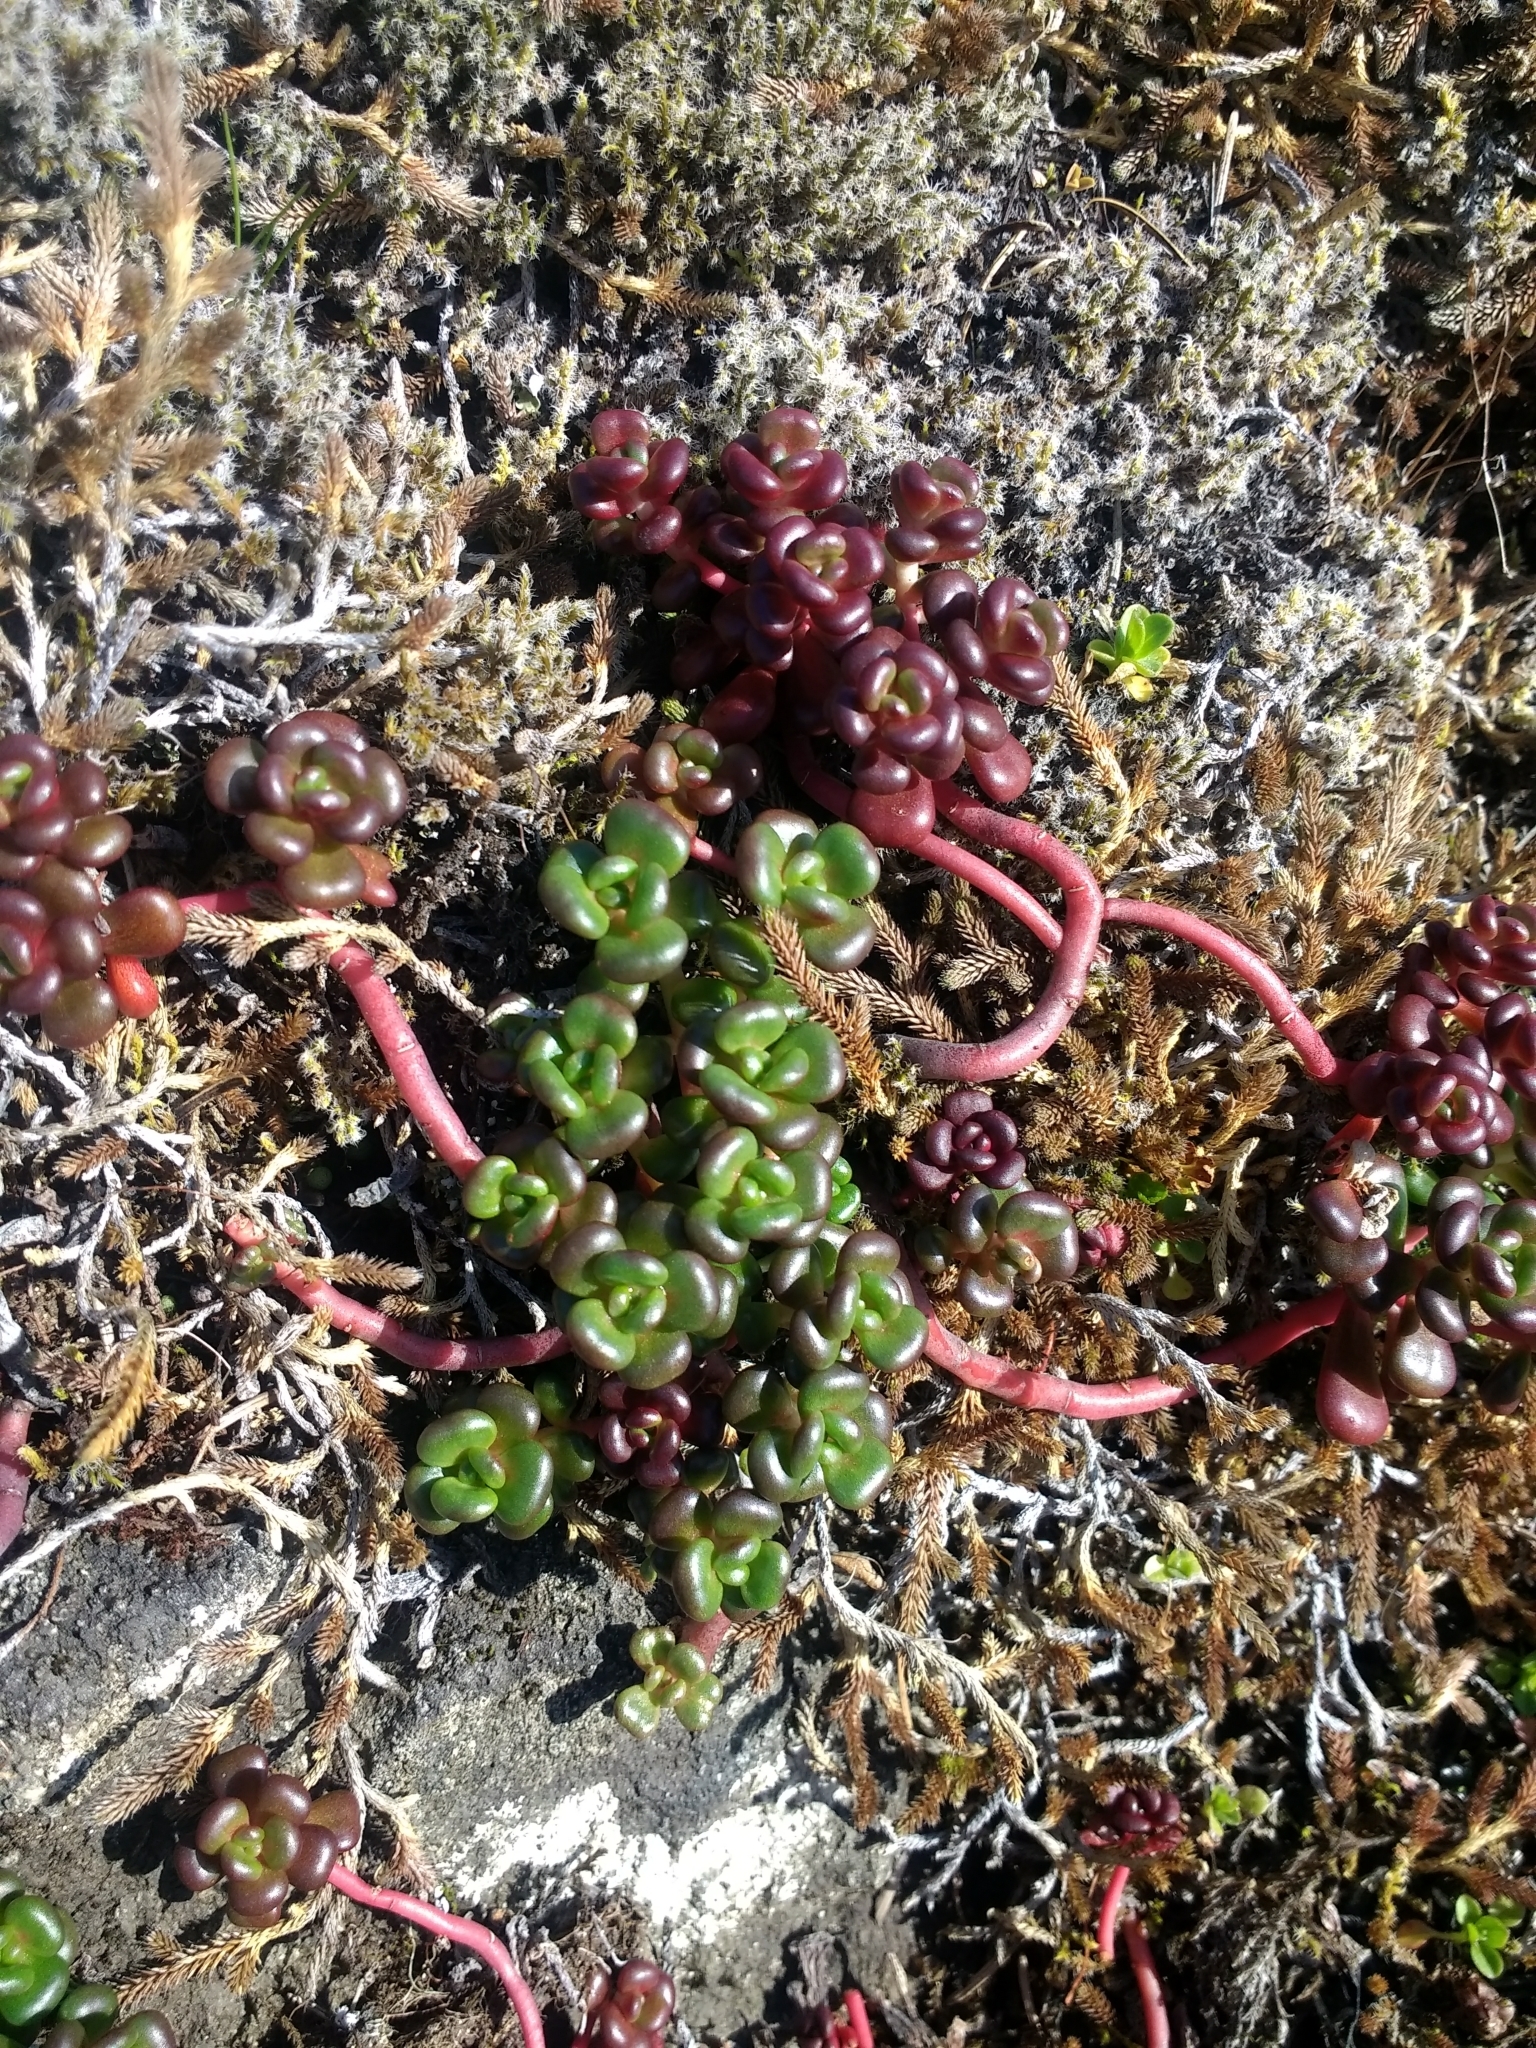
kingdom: Plantae
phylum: Tracheophyta
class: Magnoliopsida
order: Saxifragales
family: Crassulaceae
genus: Sedum
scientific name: Sedum oreganum
